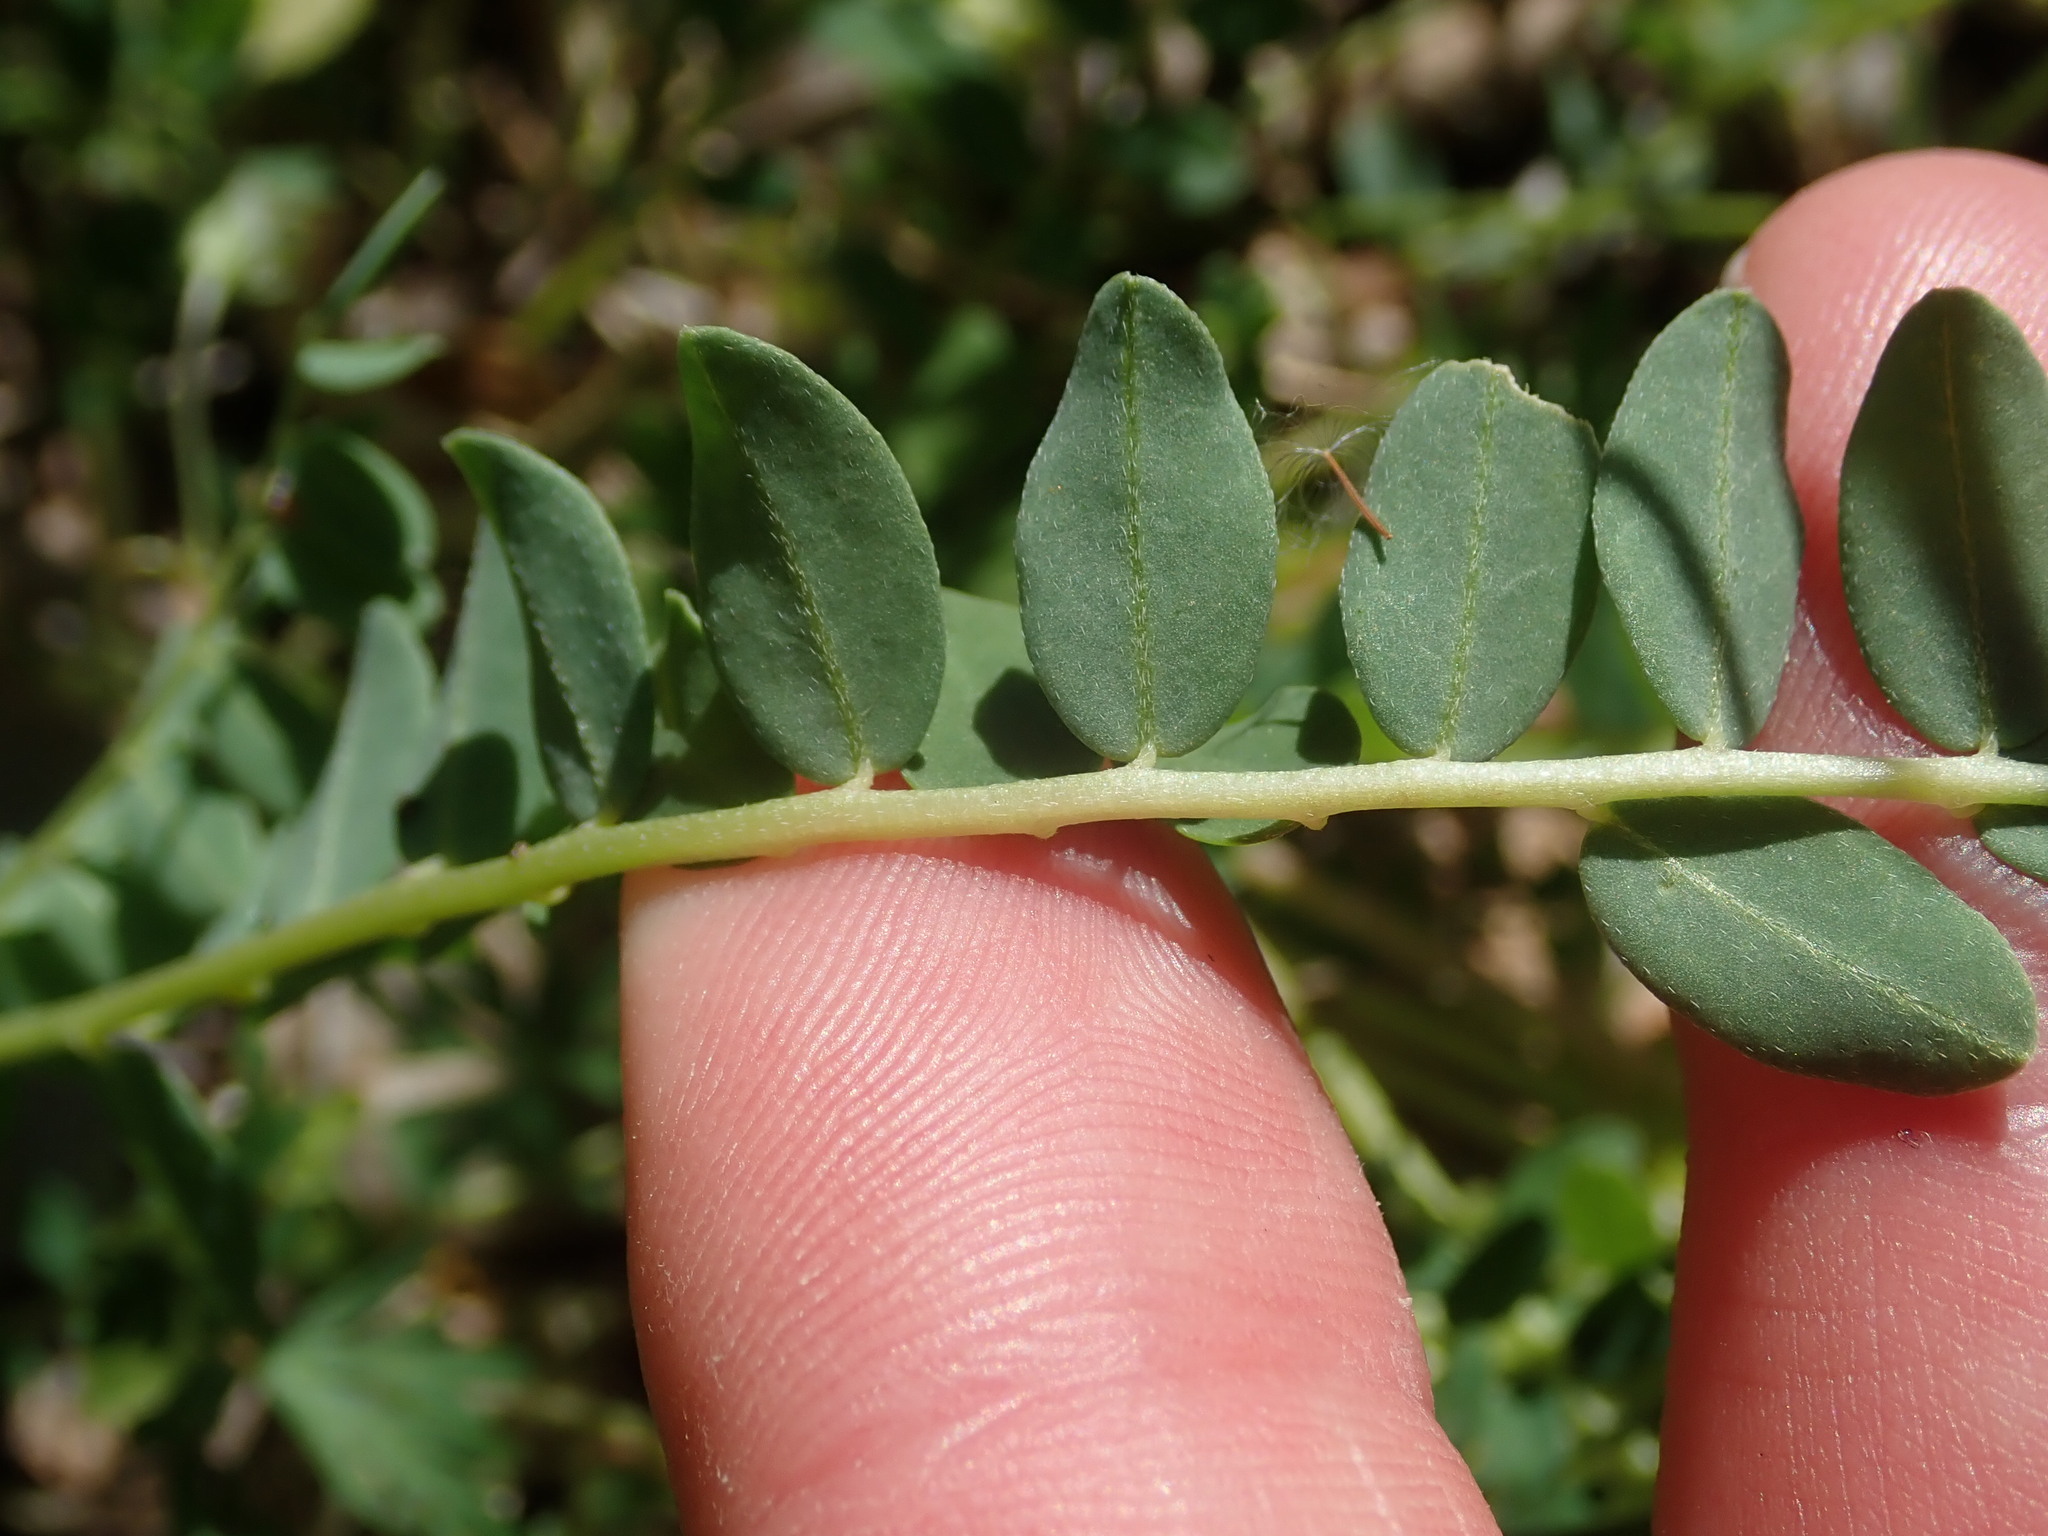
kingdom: Plantae
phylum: Tracheophyta
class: Magnoliopsida
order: Fabales
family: Fabaceae
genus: Astragalus
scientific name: Astragalus monspessulanus
